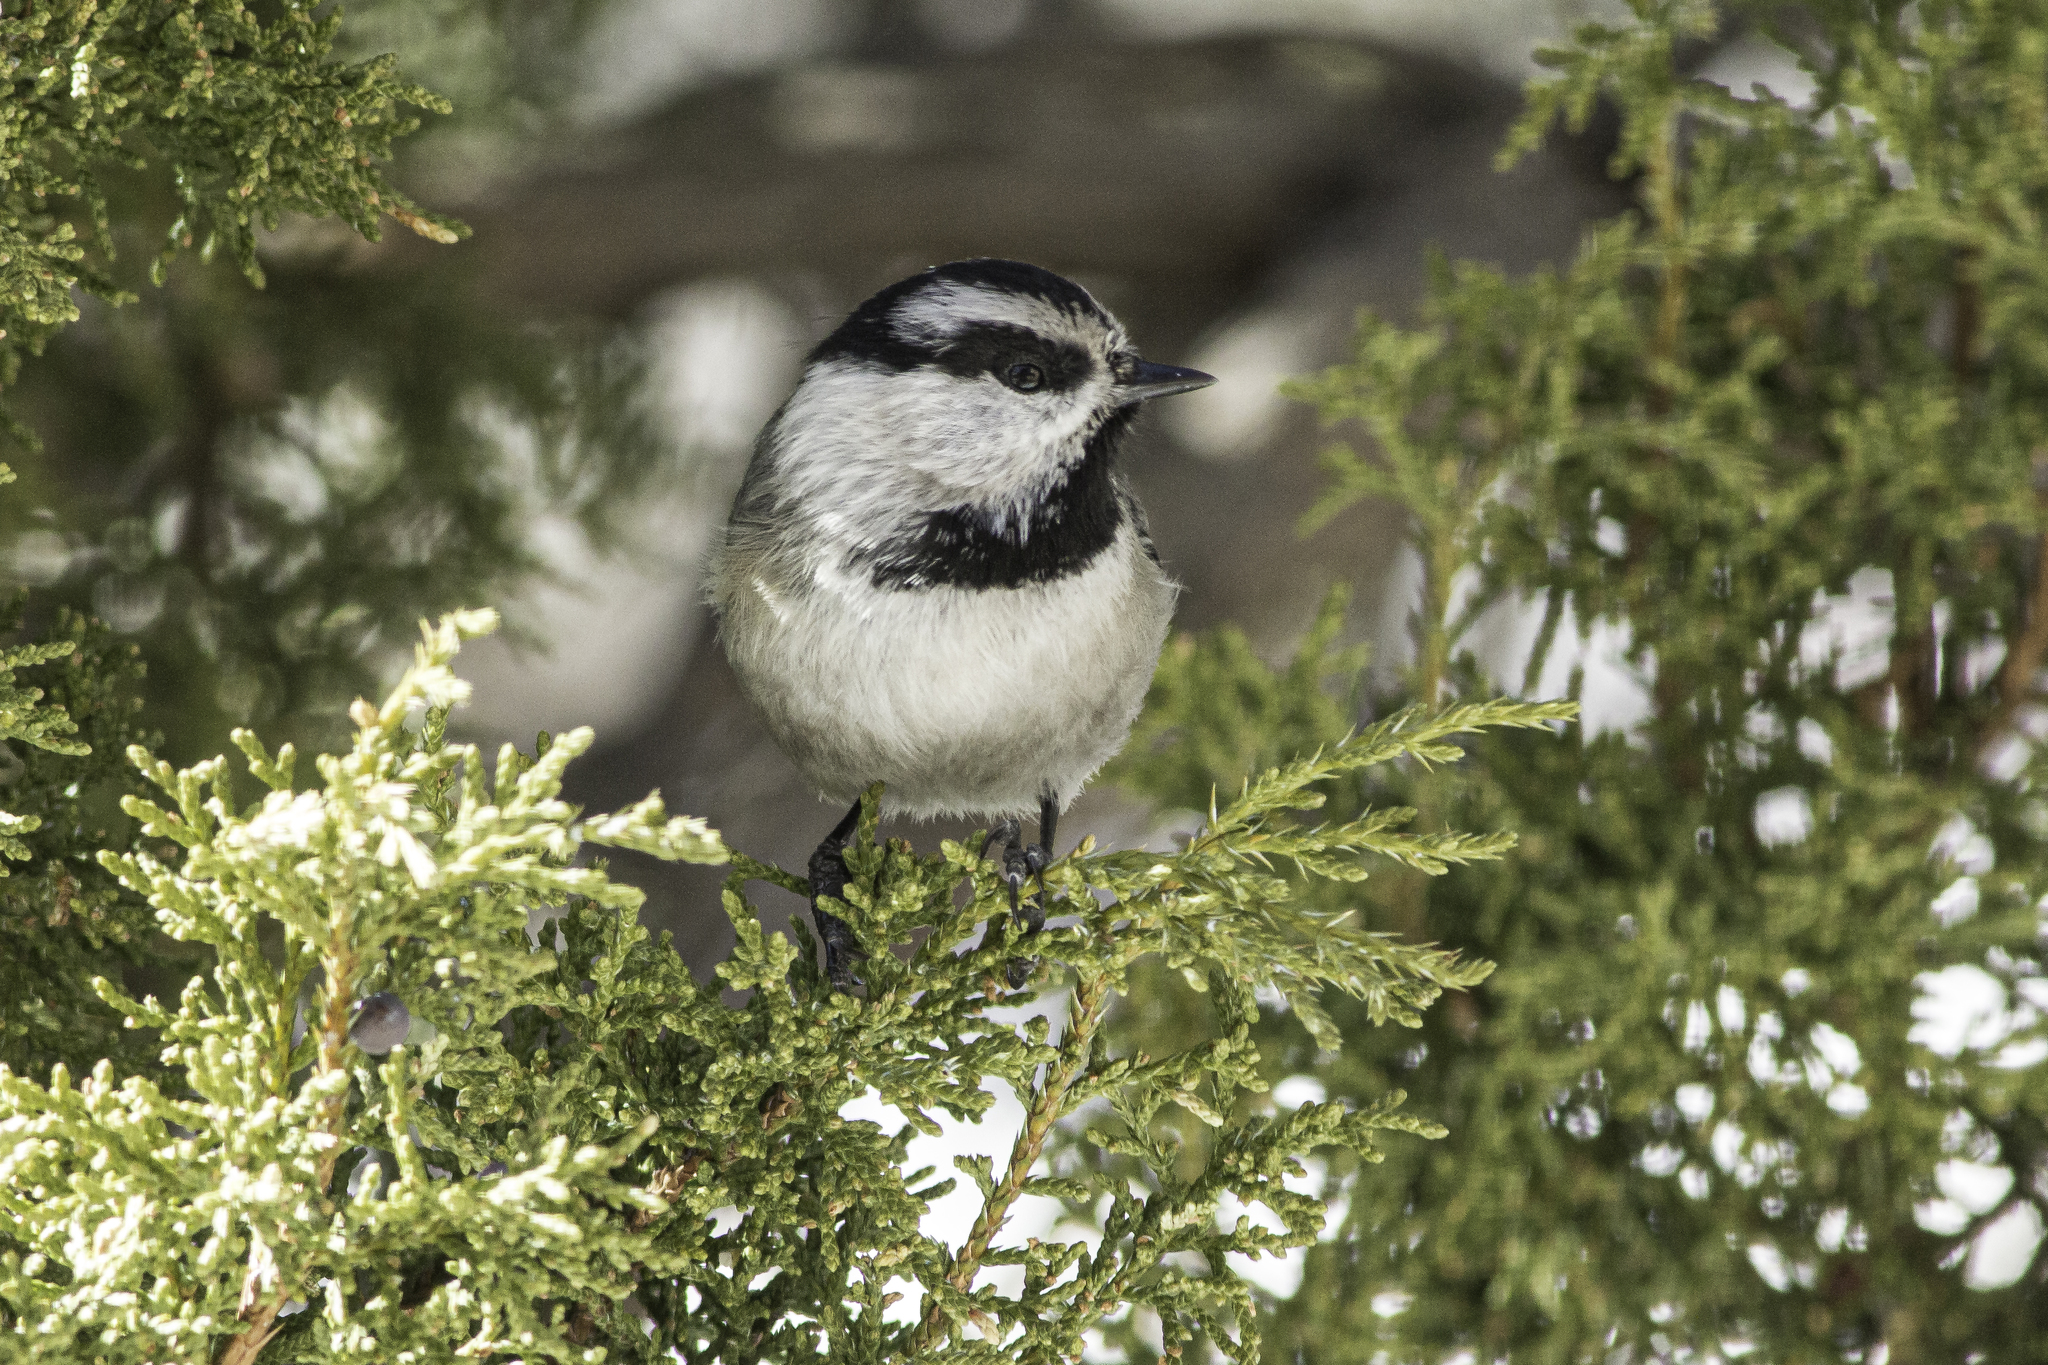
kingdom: Animalia
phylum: Chordata
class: Aves
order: Passeriformes
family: Paridae
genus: Poecile
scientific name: Poecile gambeli
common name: Mountain chickadee
